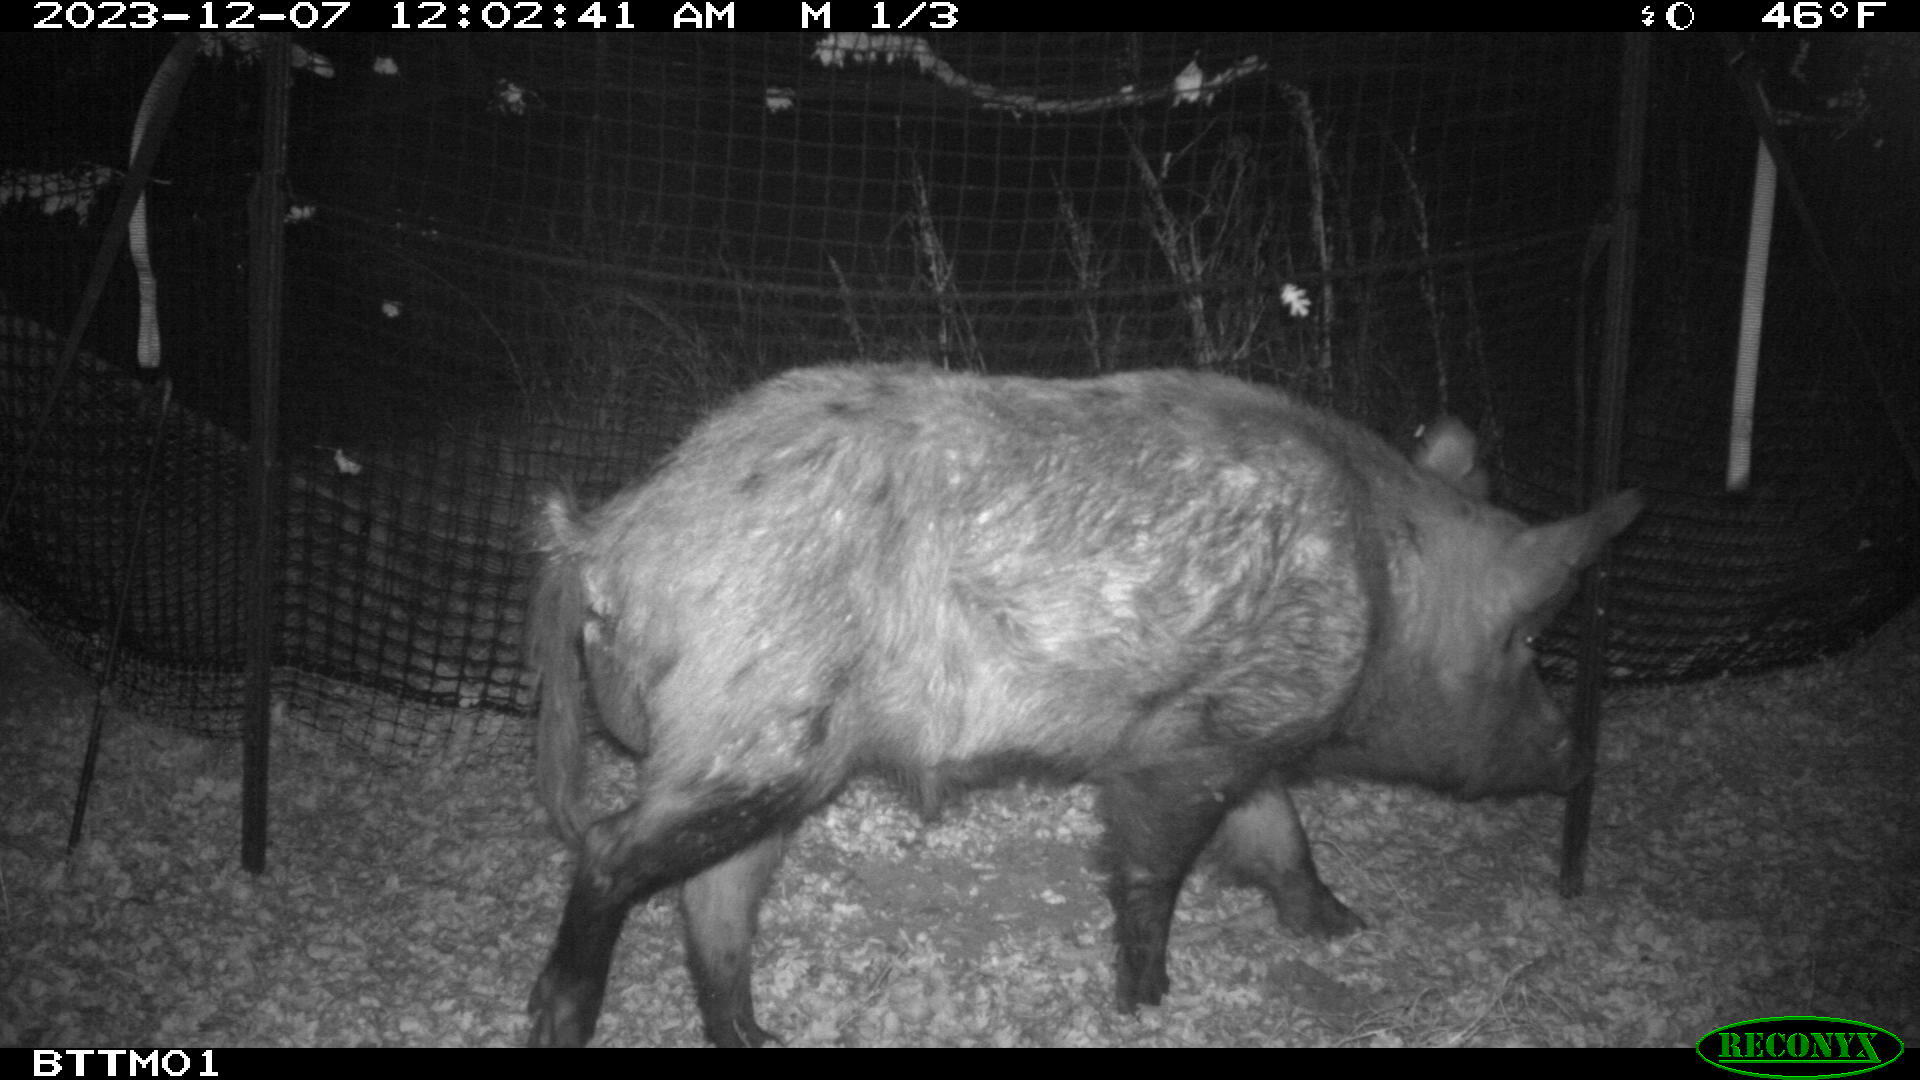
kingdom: Animalia
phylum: Chordata
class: Mammalia
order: Artiodactyla
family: Suidae
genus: Sus
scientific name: Sus scrofa
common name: Wild boar
